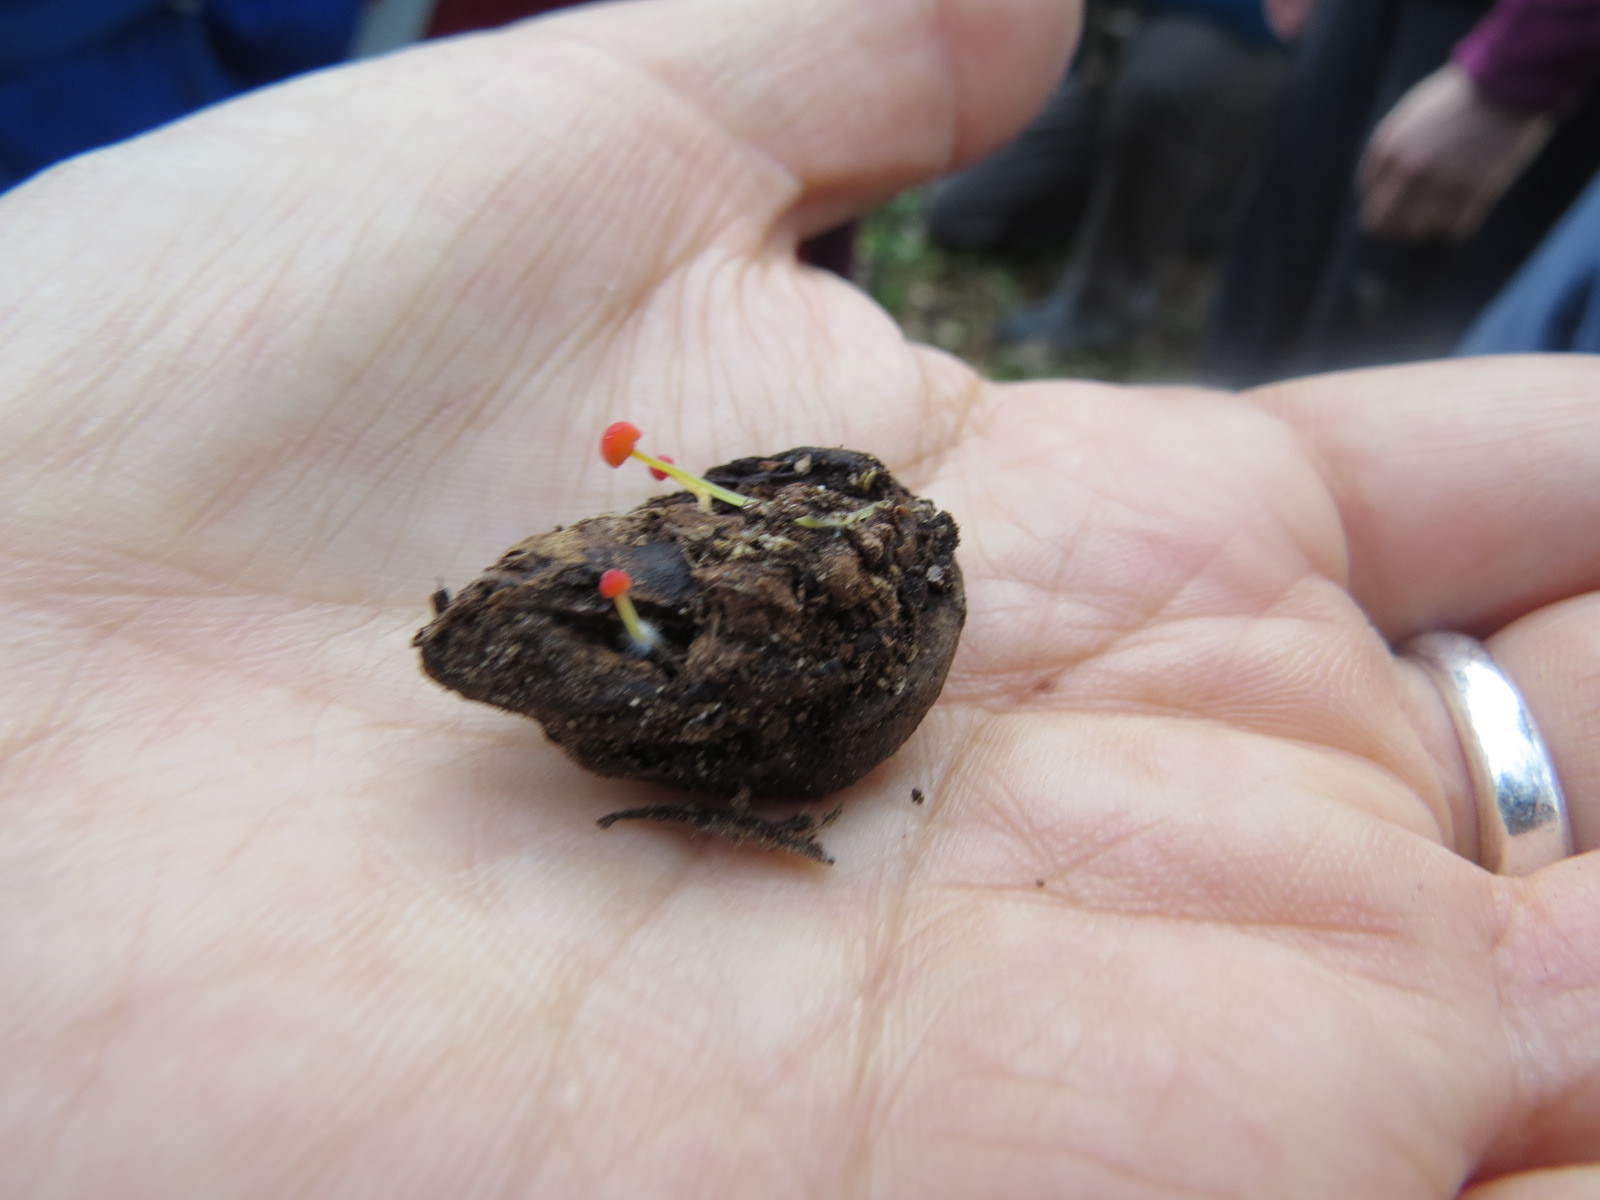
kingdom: Fungi
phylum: Basidiomycota
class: Agaricomycetes
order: Agaricales
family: Mycenaceae
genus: Mycena
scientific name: Mycena acicula
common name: Orange bonnet
